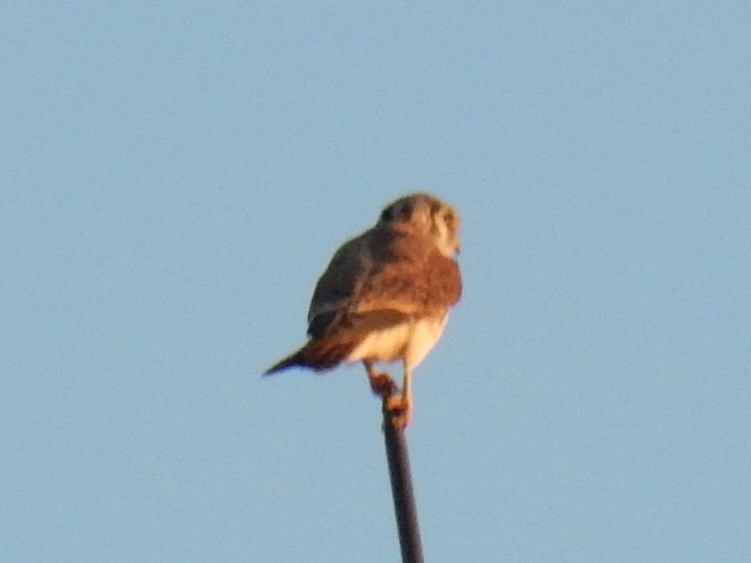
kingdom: Animalia
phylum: Chordata
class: Aves
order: Falconiformes
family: Falconidae
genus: Falco
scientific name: Falco sparverius
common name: American kestrel
